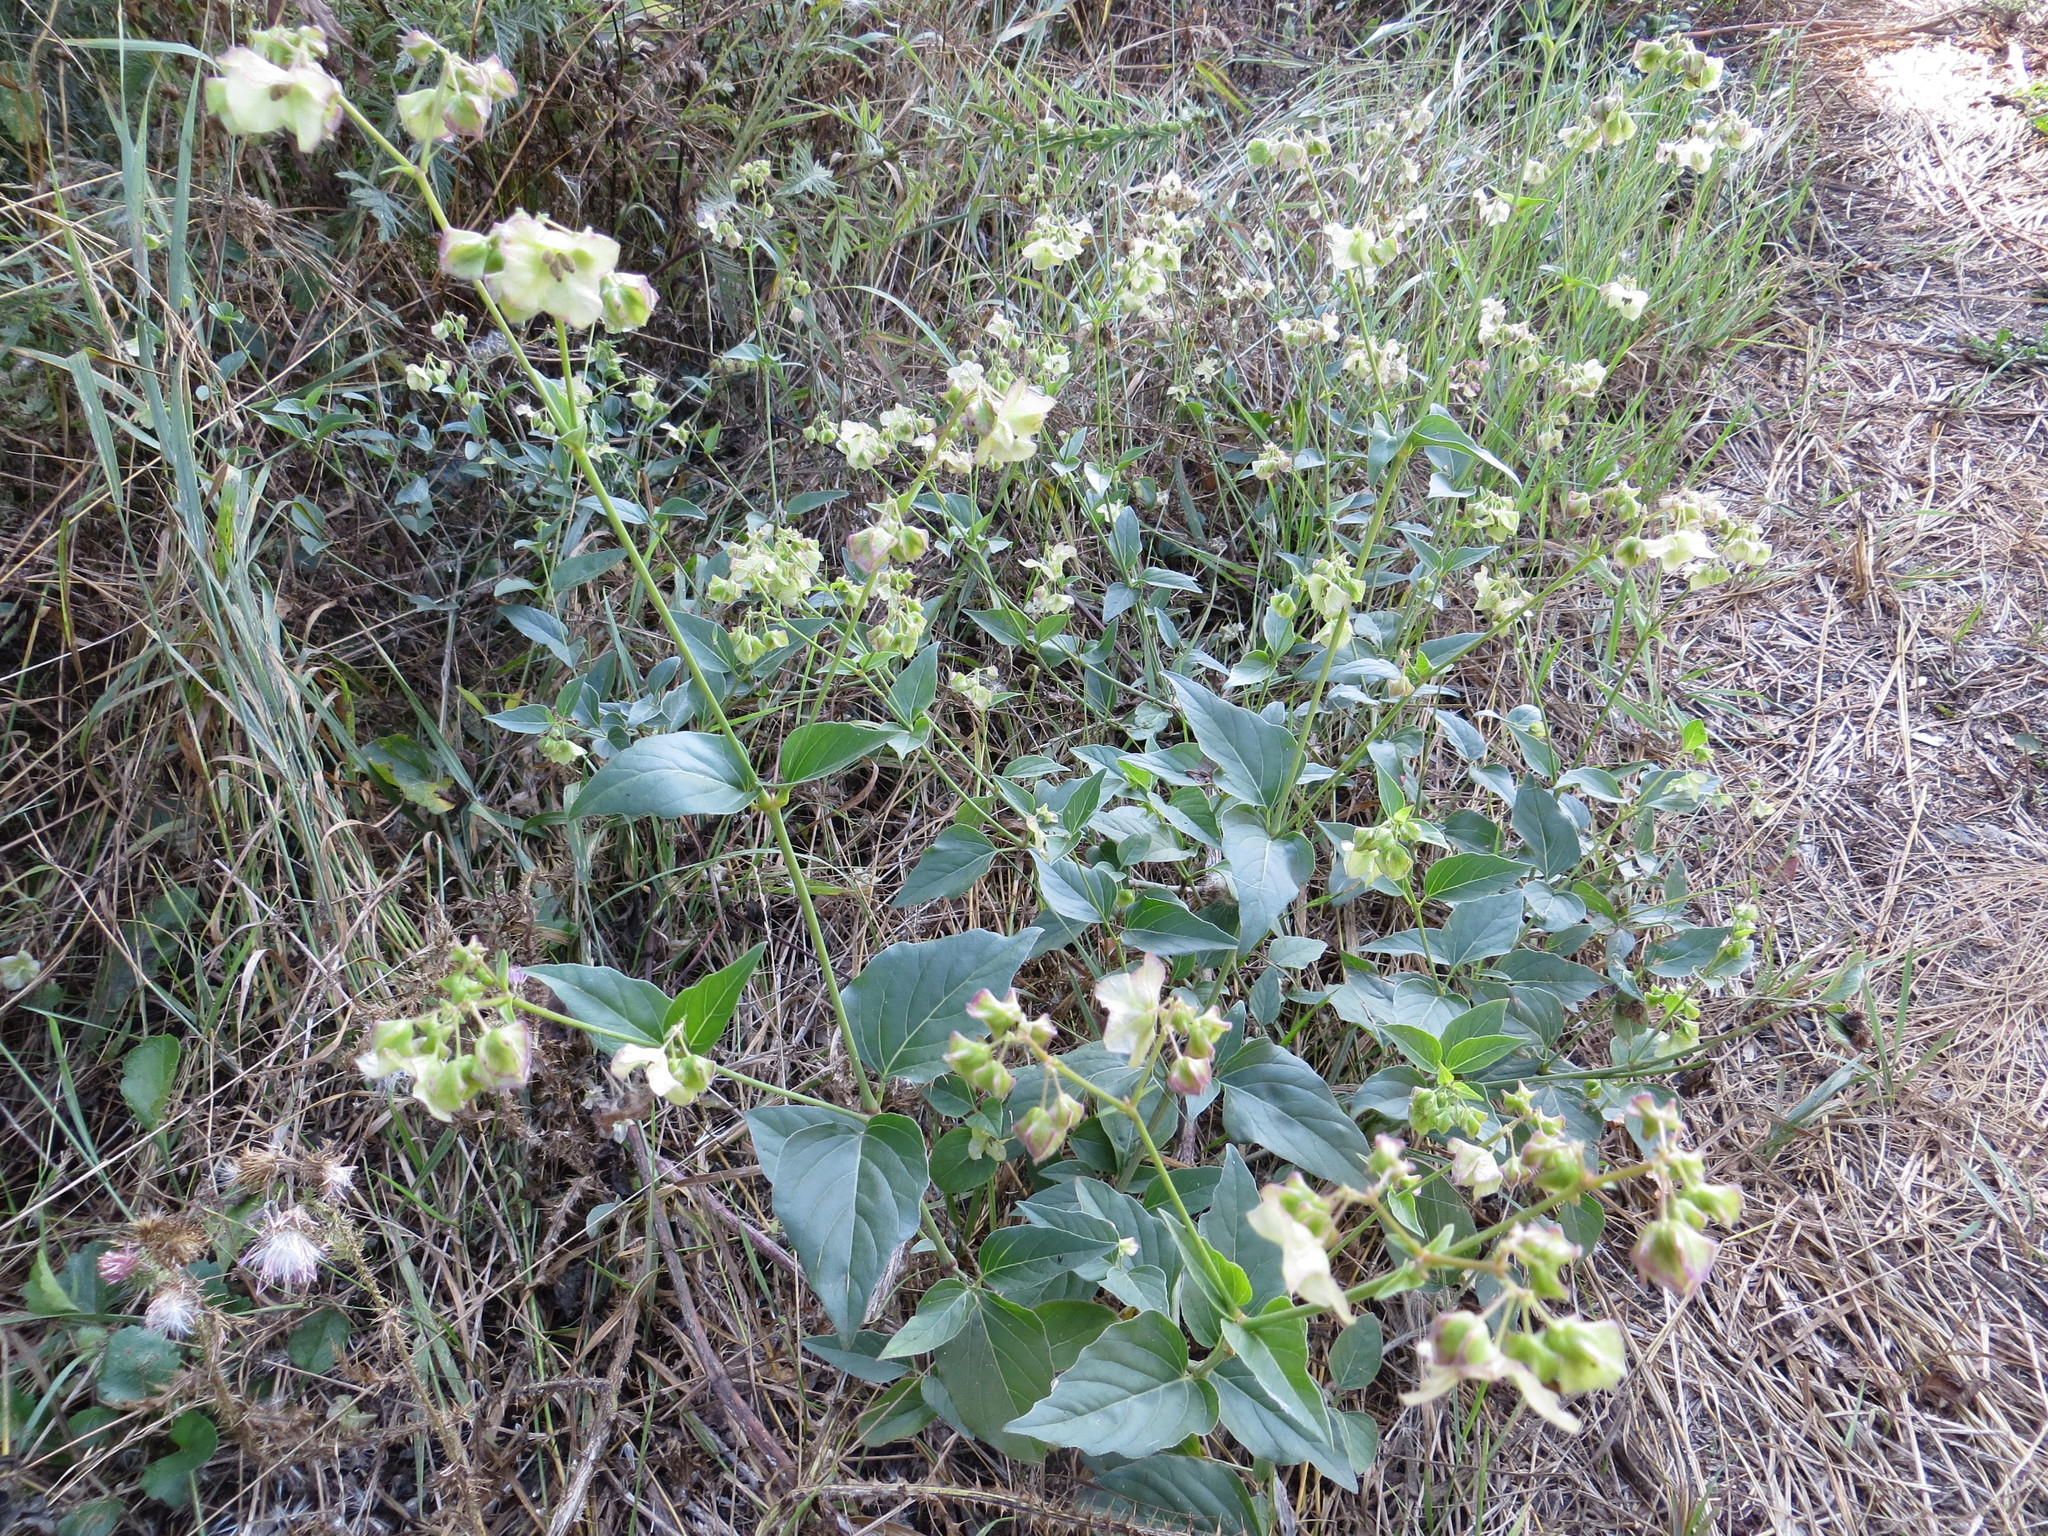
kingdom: Plantae
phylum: Tracheophyta
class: Magnoliopsida
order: Caryophyllales
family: Nyctaginaceae
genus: Mirabilis
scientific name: Mirabilis nyctaginea
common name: Umbrella wort
